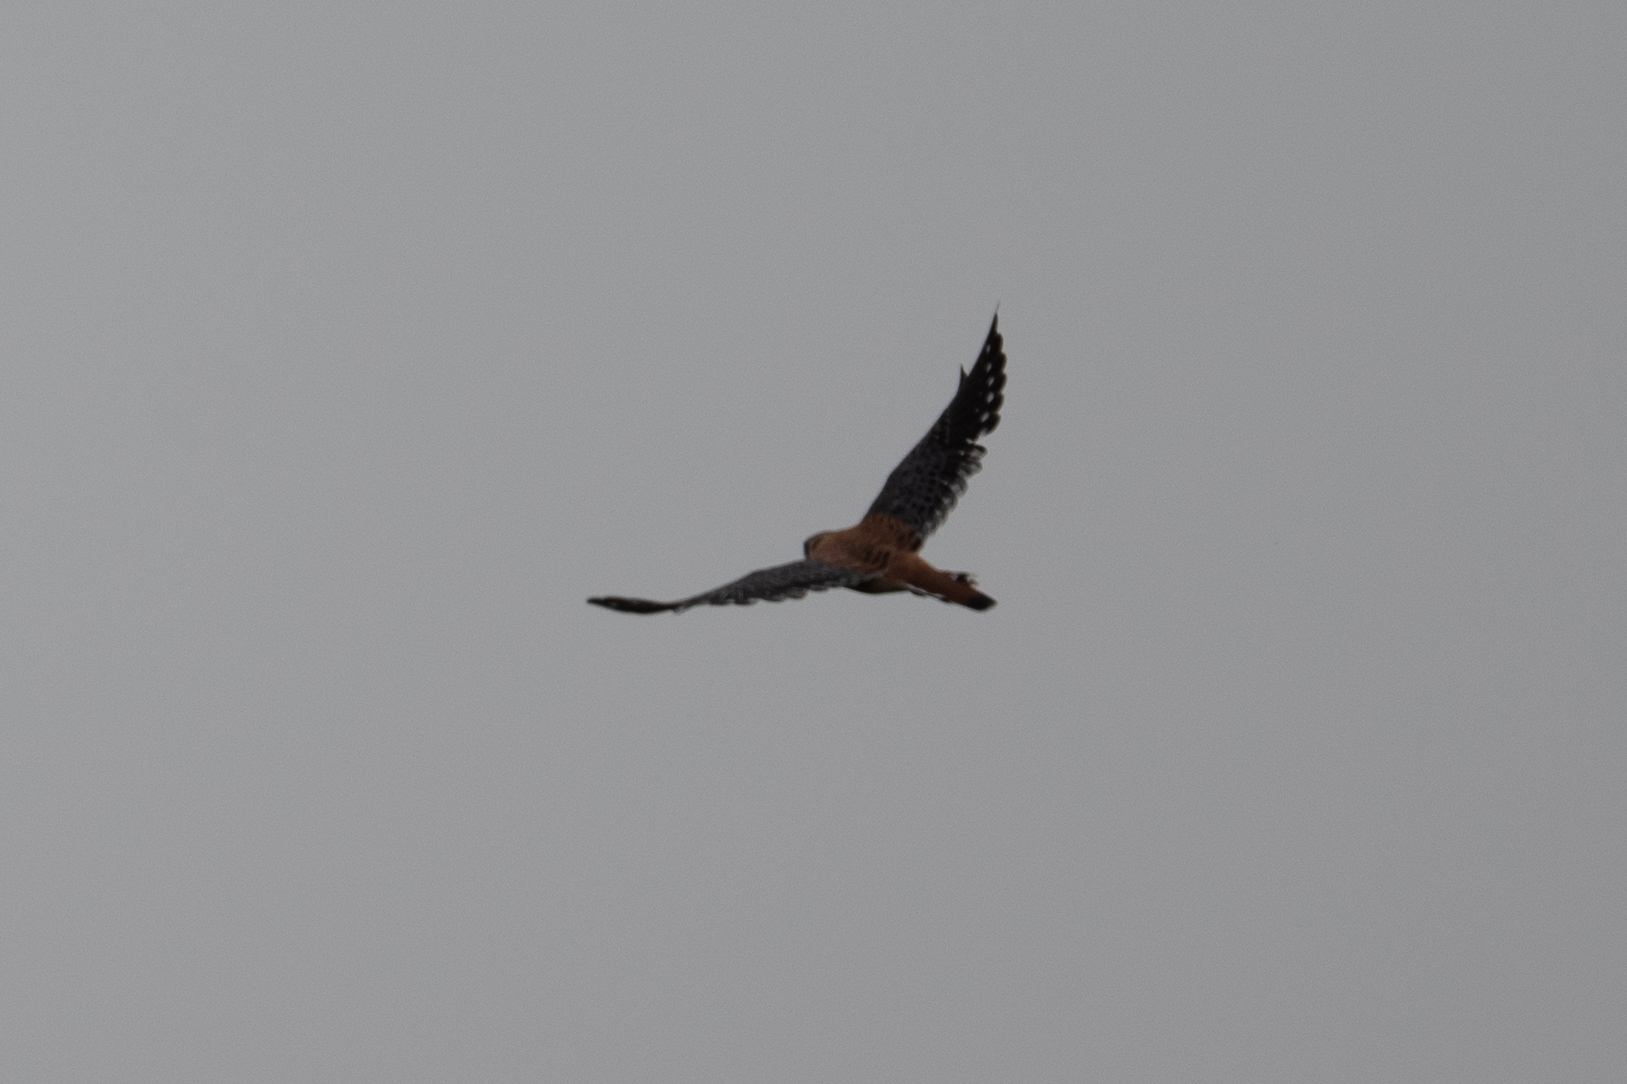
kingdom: Animalia
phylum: Chordata
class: Aves
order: Falconiformes
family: Falconidae
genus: Falco
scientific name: Falco sparverius
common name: American kestrel
